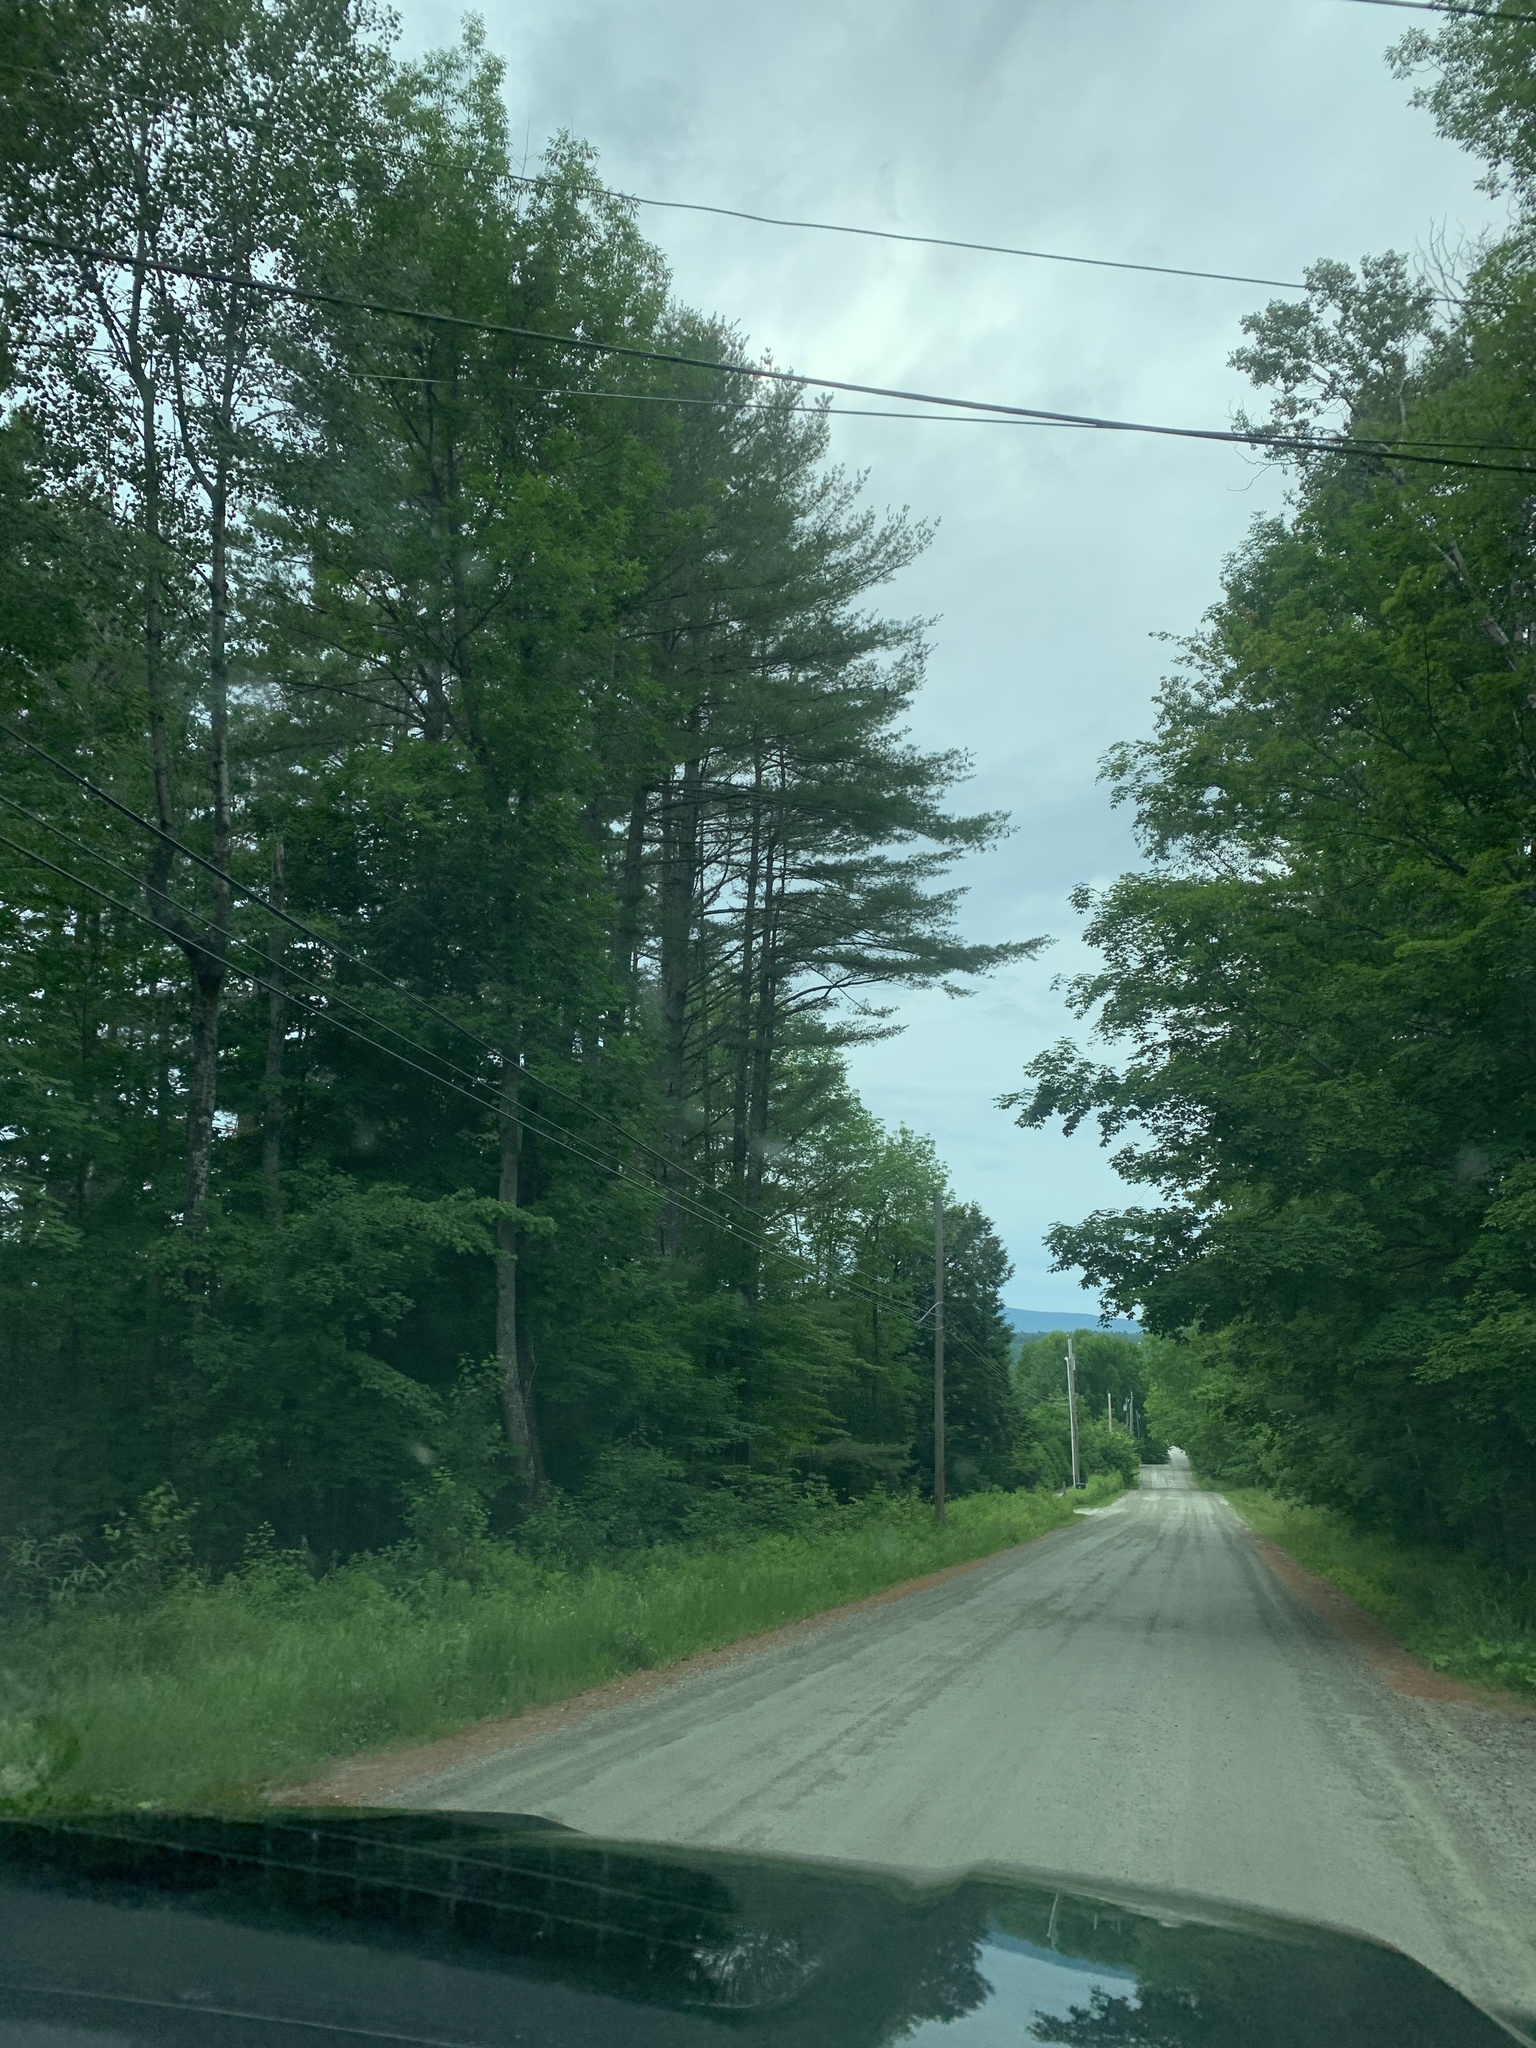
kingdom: Plantae
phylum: Tracheophyta
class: Pinopsida
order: Pinales
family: Pinaceae
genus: Pinus
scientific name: Pinus strobus
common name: Weymouth pine
